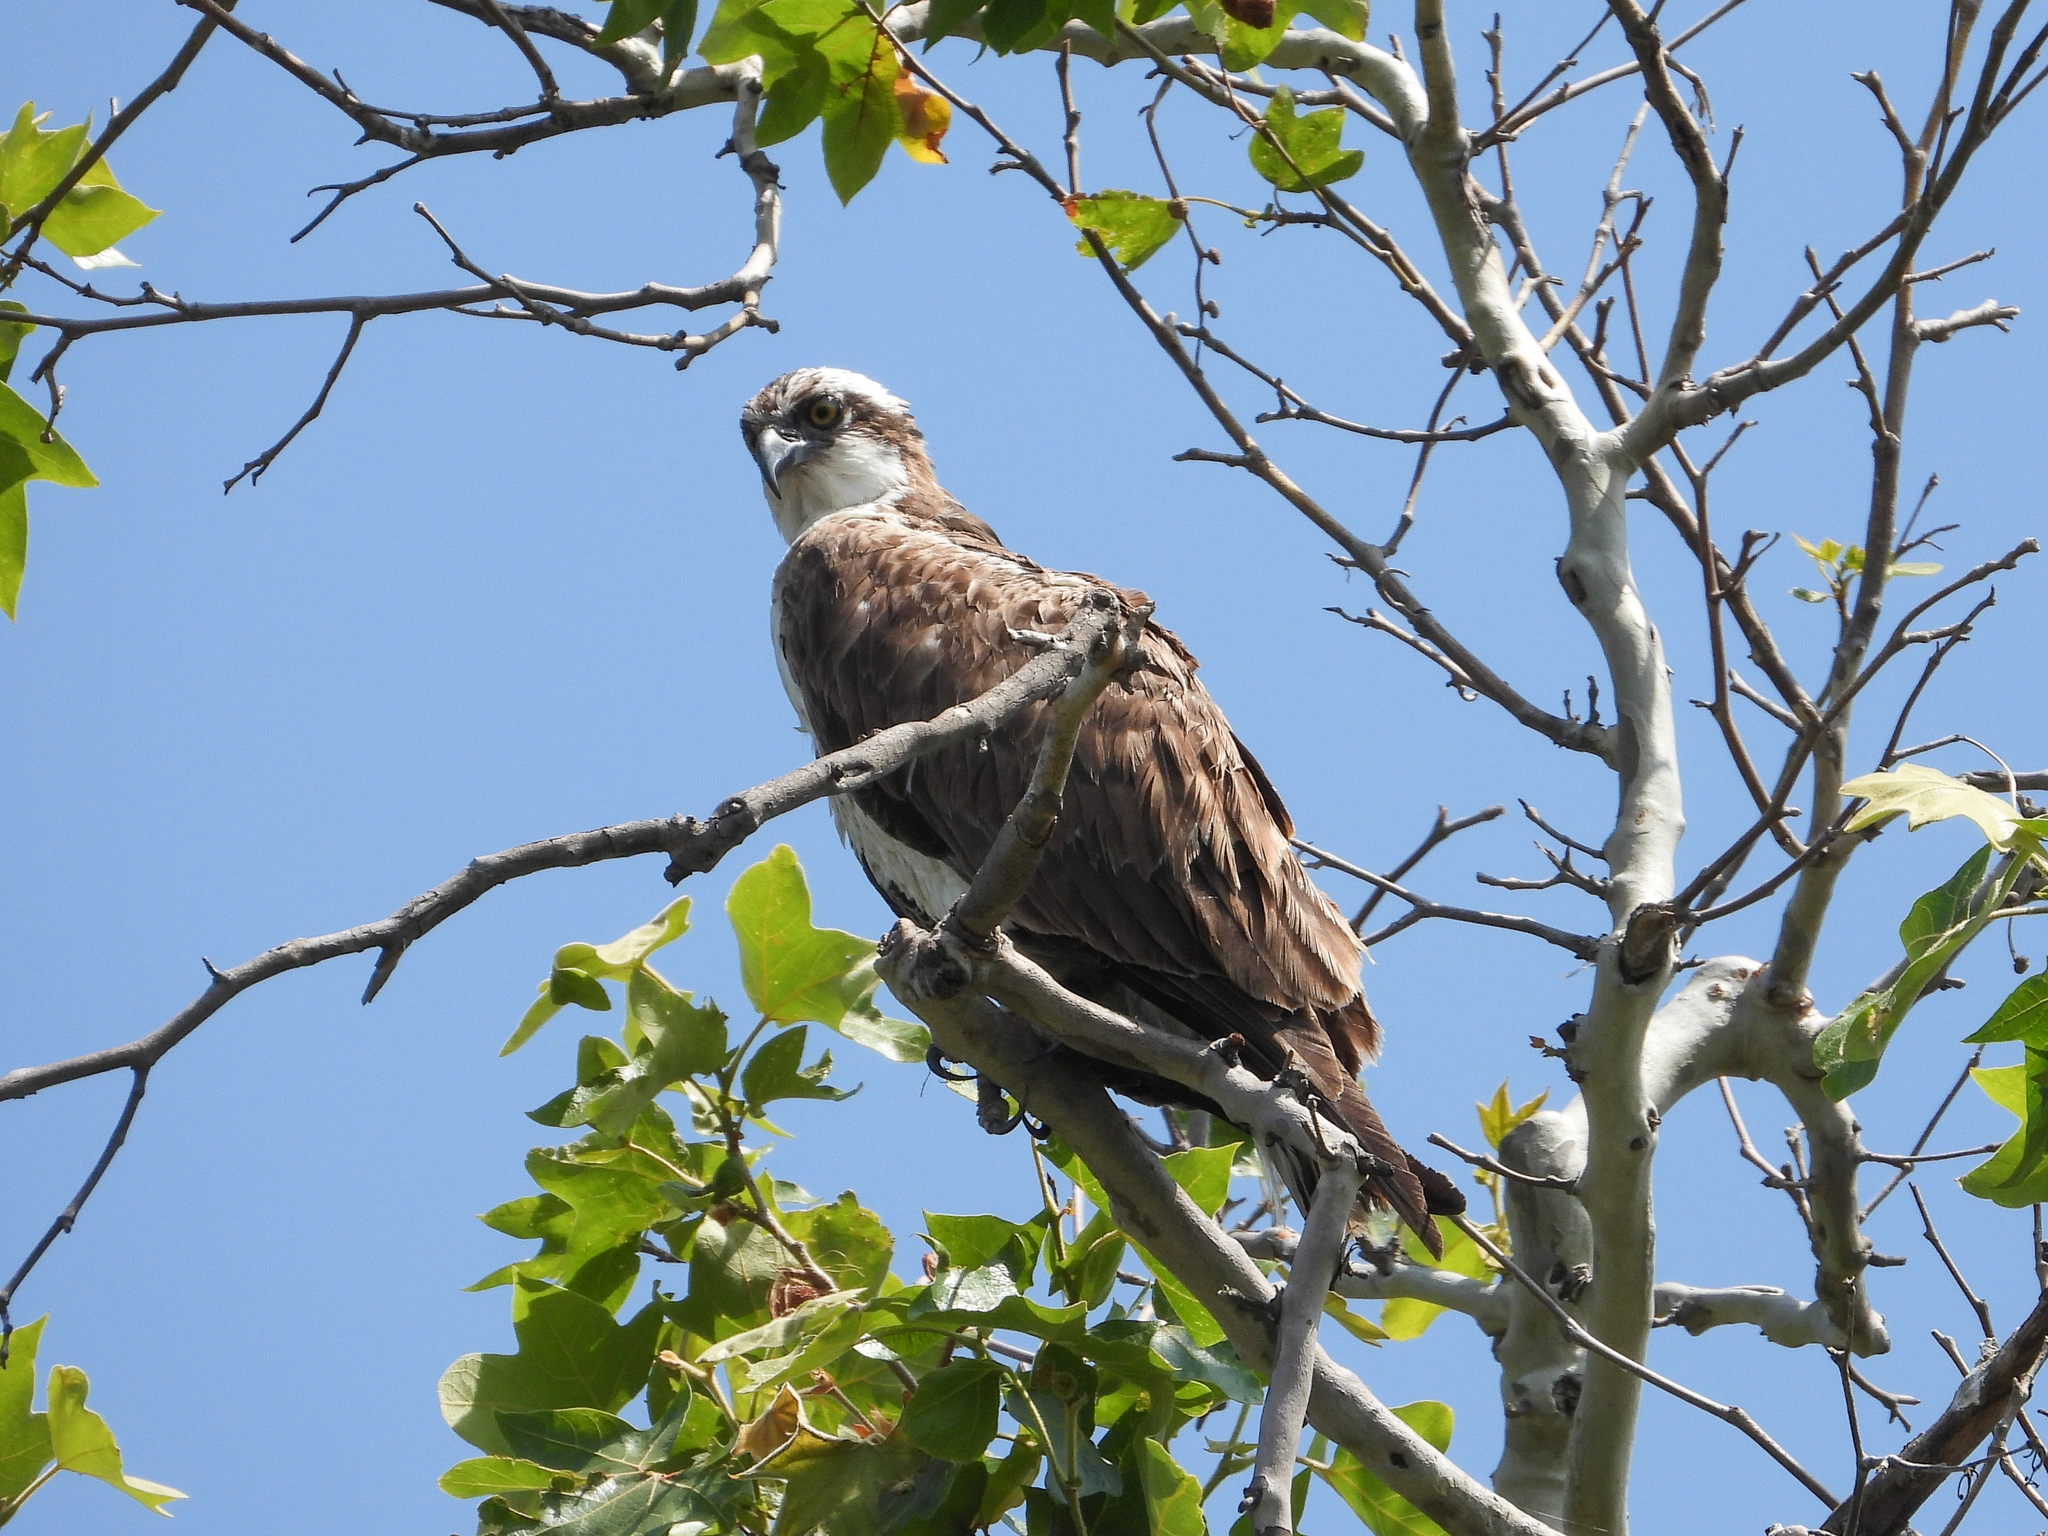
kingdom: Animalia
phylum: Chordata
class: Aves
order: Accipitriformes
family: Pandionidae
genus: Pandion
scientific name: Pandion haliaetus
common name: Osprey
